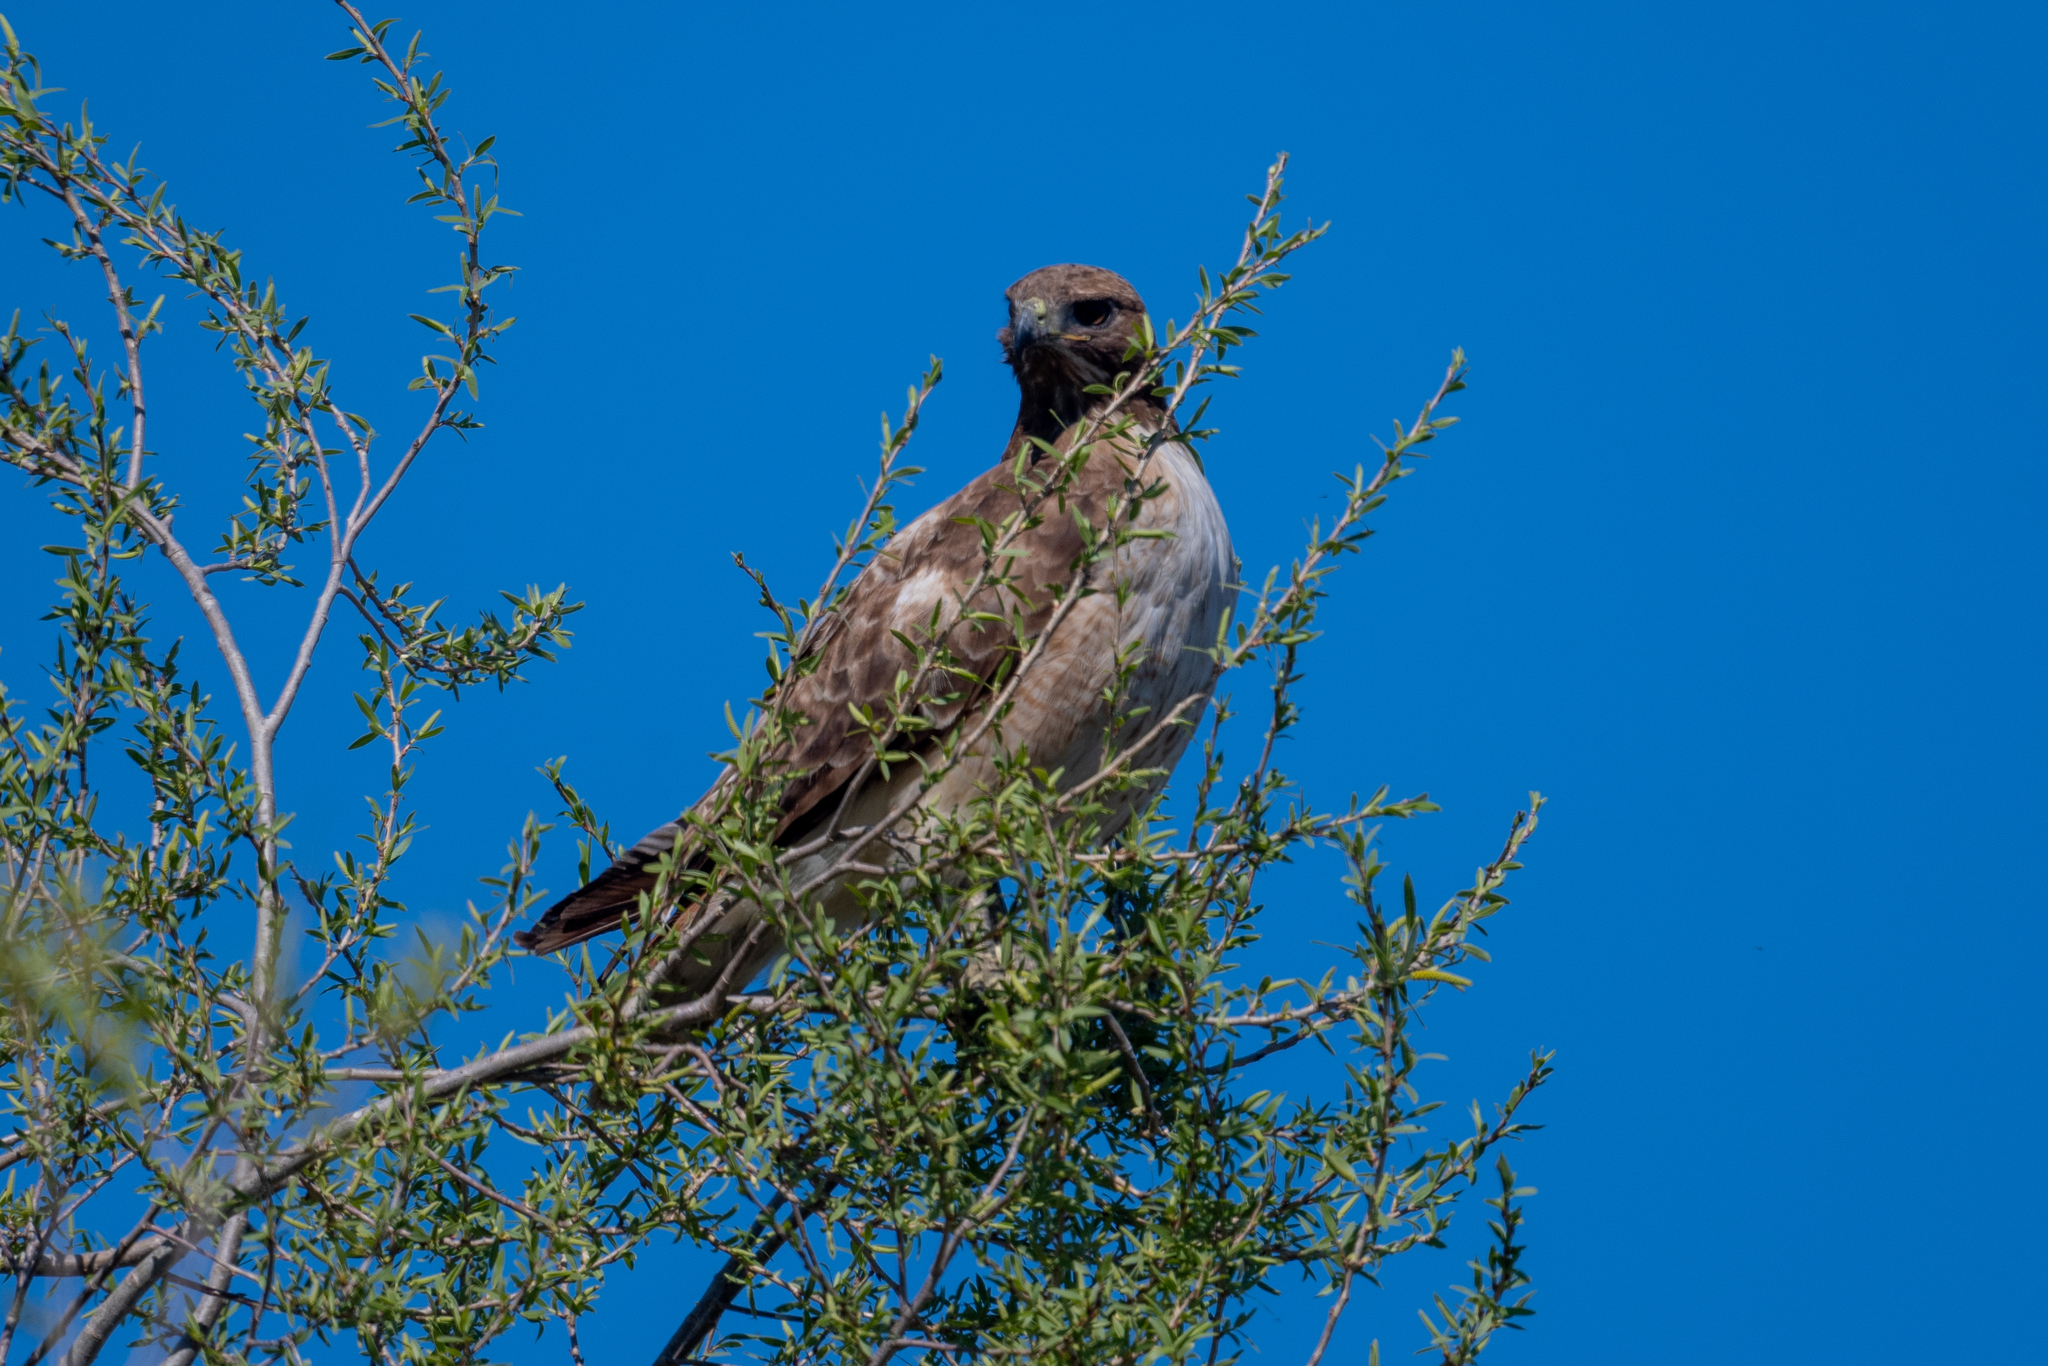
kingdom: Animalia
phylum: Chordata
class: Aves
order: Accipitriformes
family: Accipitridae
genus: Buteo
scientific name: Buteo jamaicensis
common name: Red-tailed hawk
